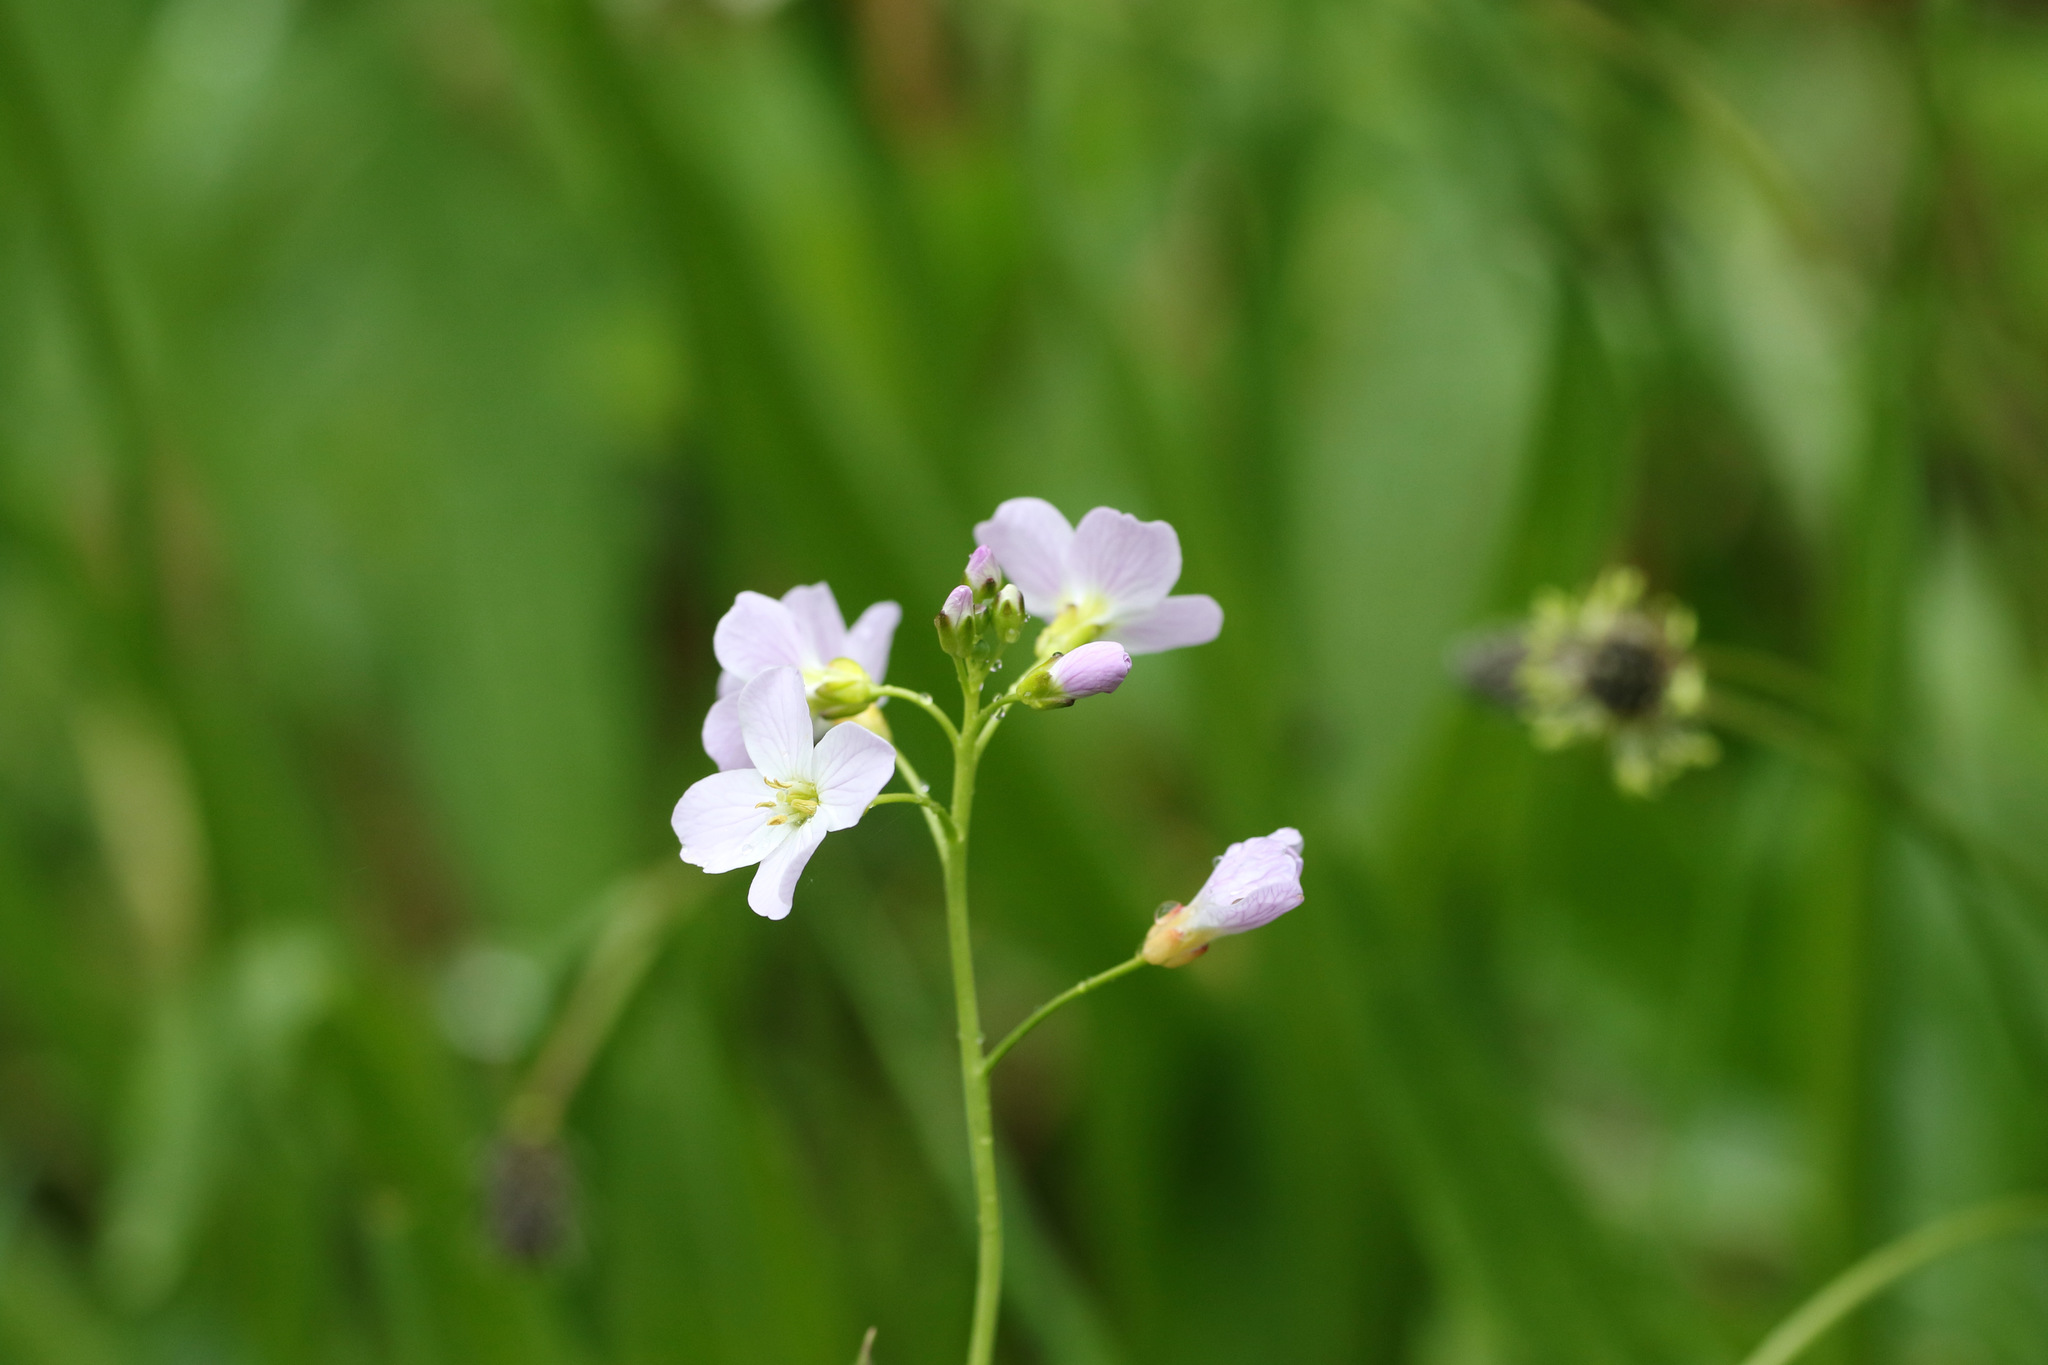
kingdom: Plantae
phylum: Tracheophyta
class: Magnoliopsida
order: Brassicales
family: Brassicaceae
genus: Cardamine
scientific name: Cardamine pratensis
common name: Cuckoo flower
